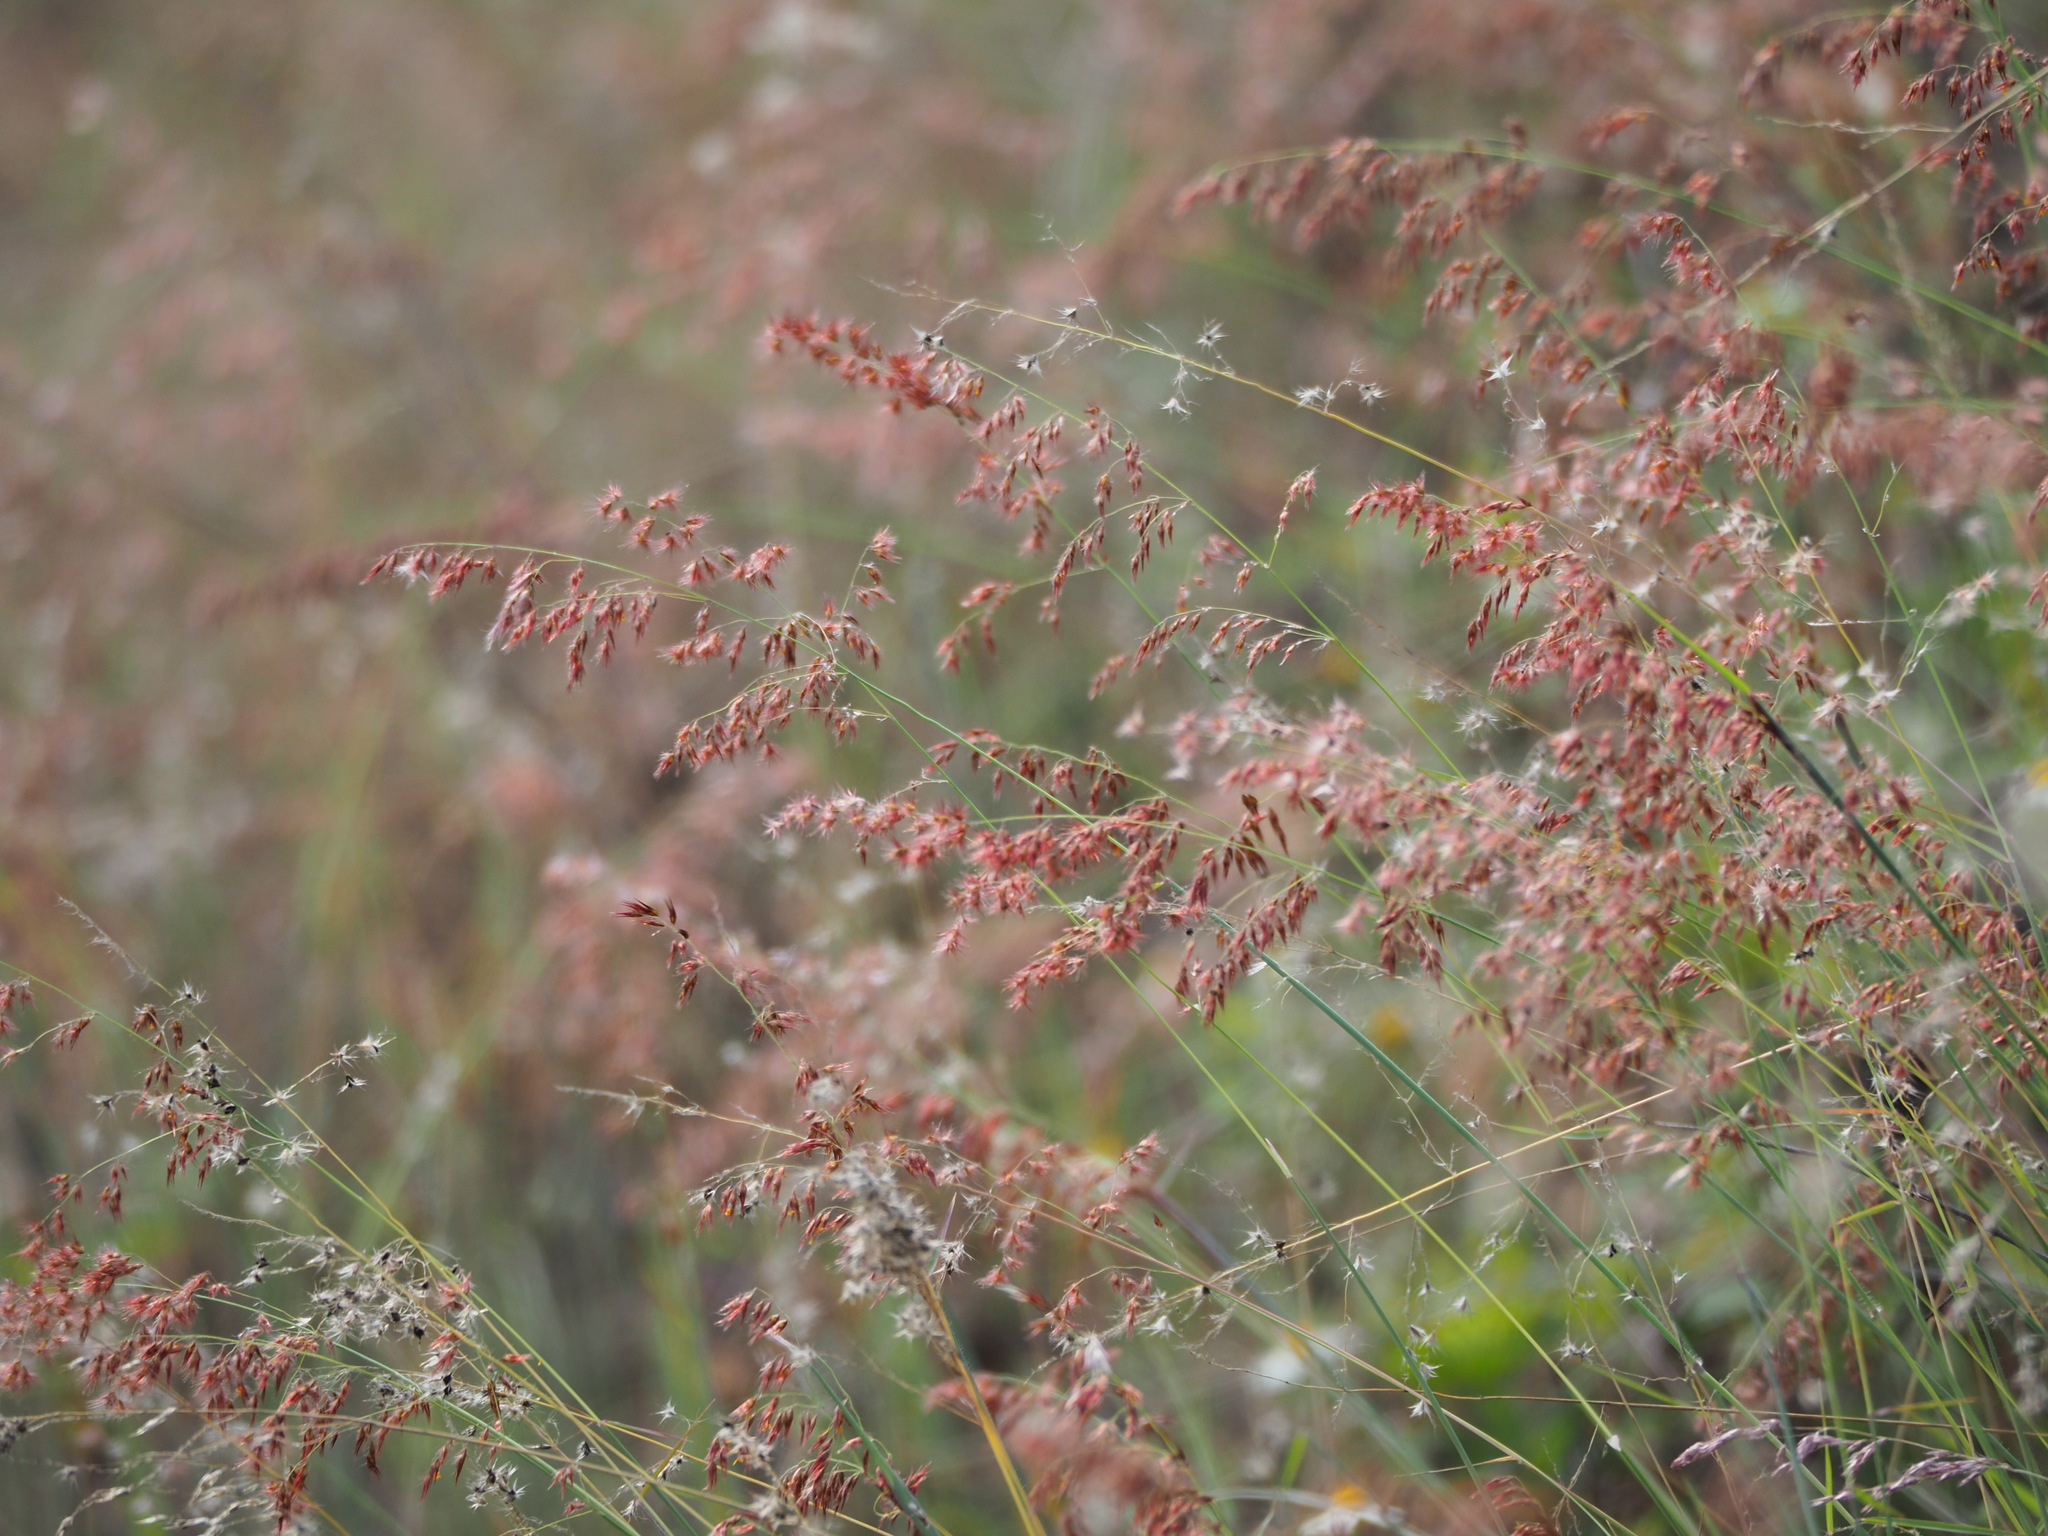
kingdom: Plantae
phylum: Tracheophyta
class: Liliopsida
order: Poales
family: Poaceae
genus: Melinis
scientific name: Melinis repens
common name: Rose natal grass
